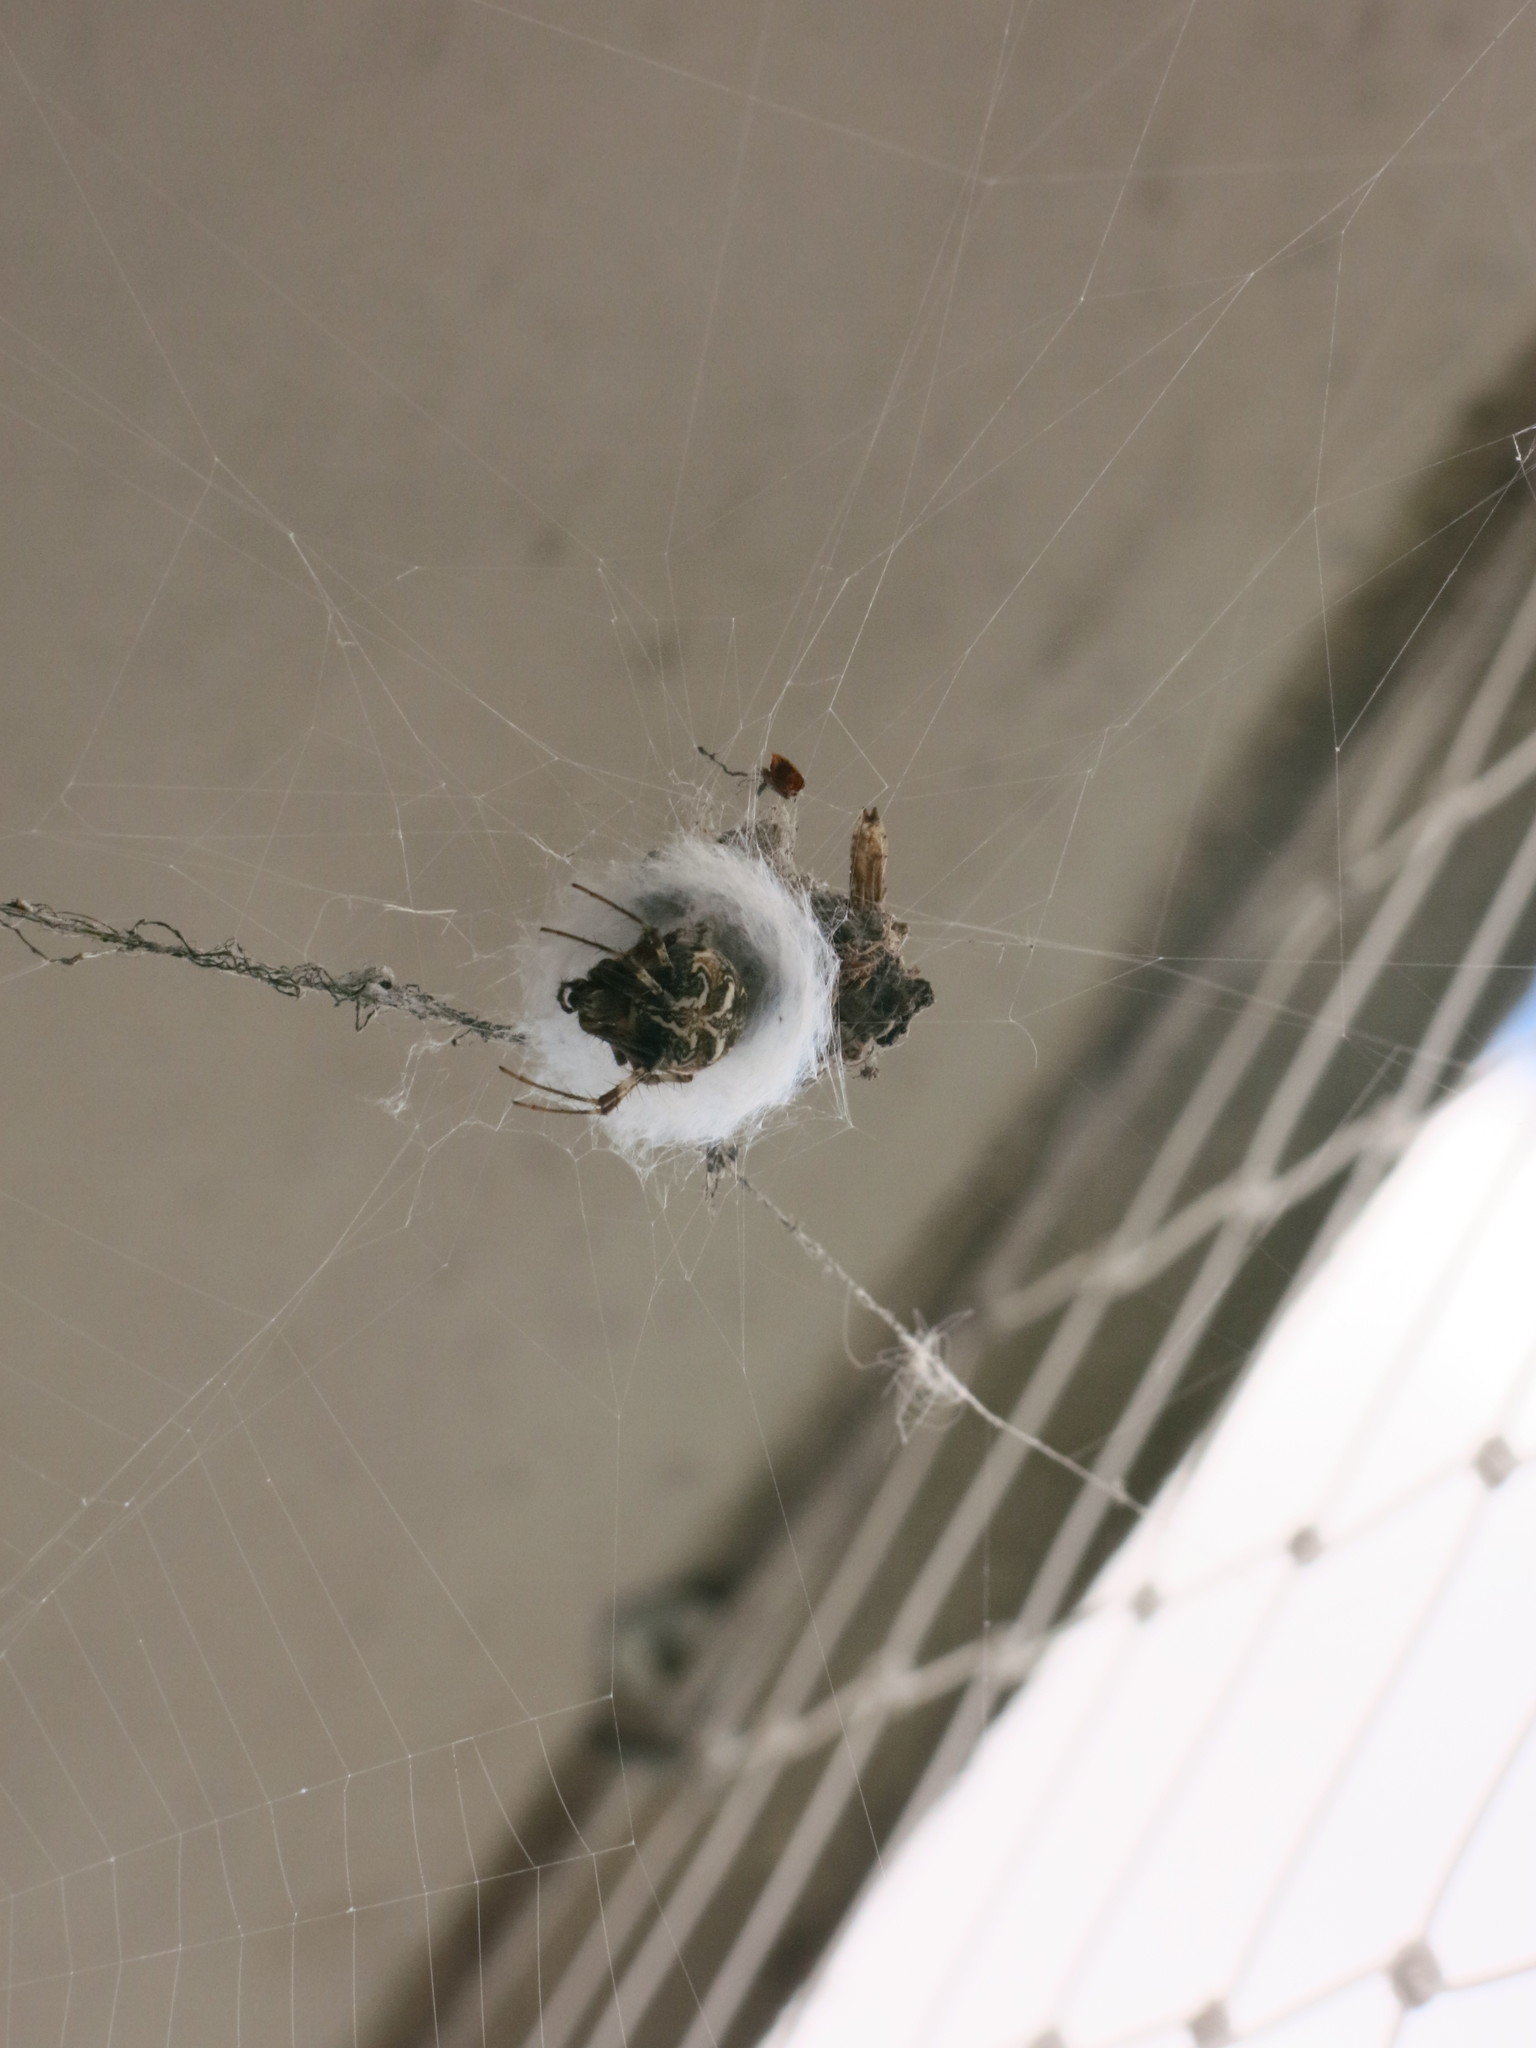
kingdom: Animalia
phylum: Arthropoda
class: Arachnida
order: Araneae
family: Araneidae
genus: Metepeira
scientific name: Metepeira
